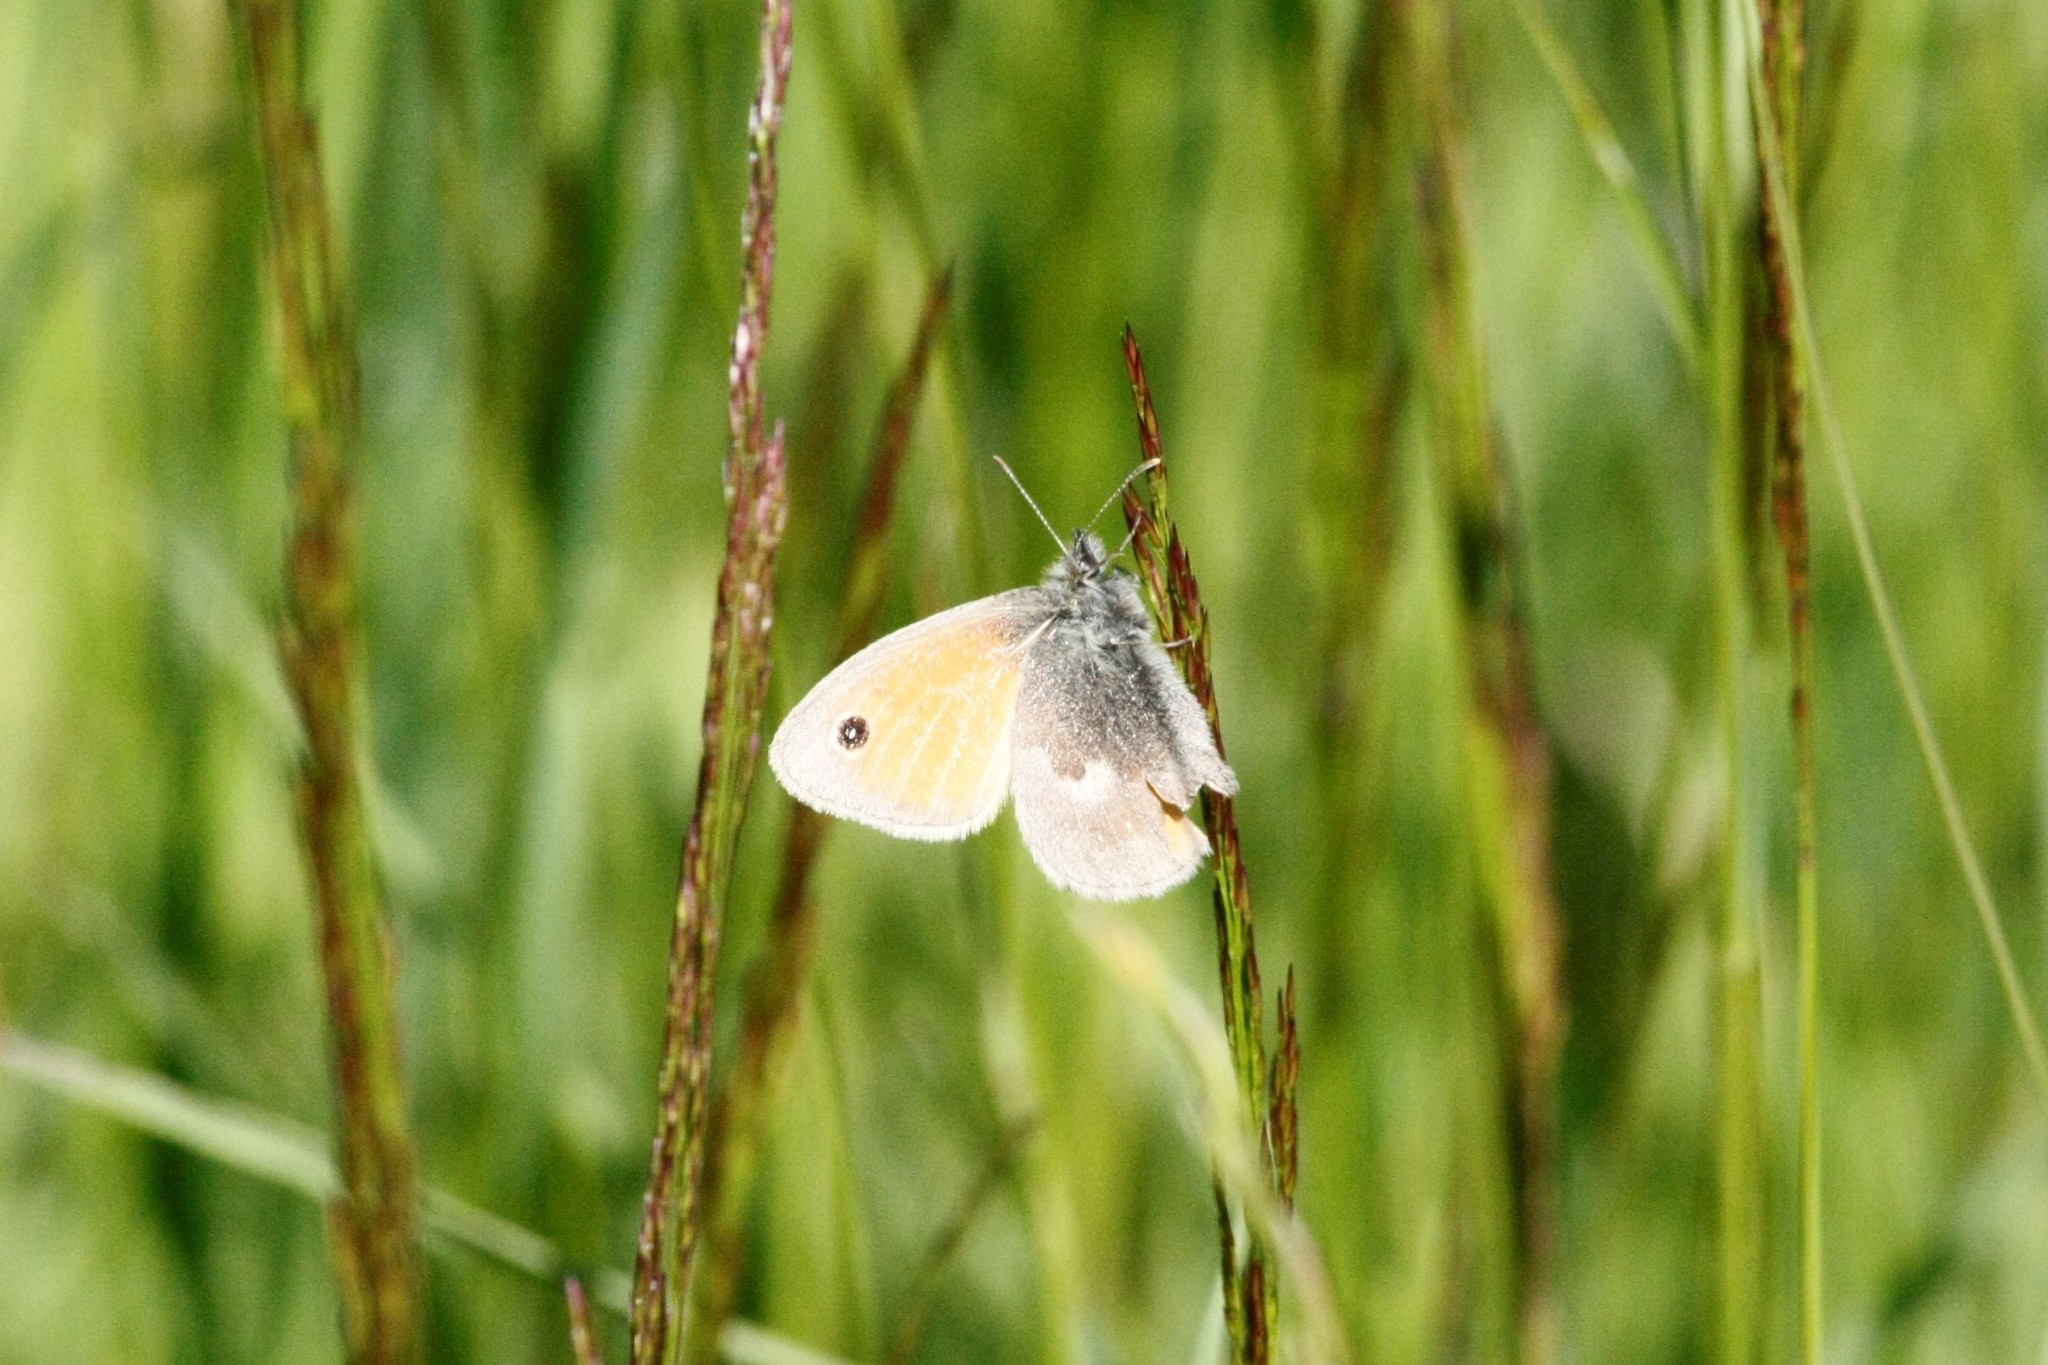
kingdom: Animalia
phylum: Arthropoda
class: Insecta
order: Lepidoptera
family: Nymphalidae
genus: Coenonympha
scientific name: Coenonympha pamphilus
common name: Small heath
